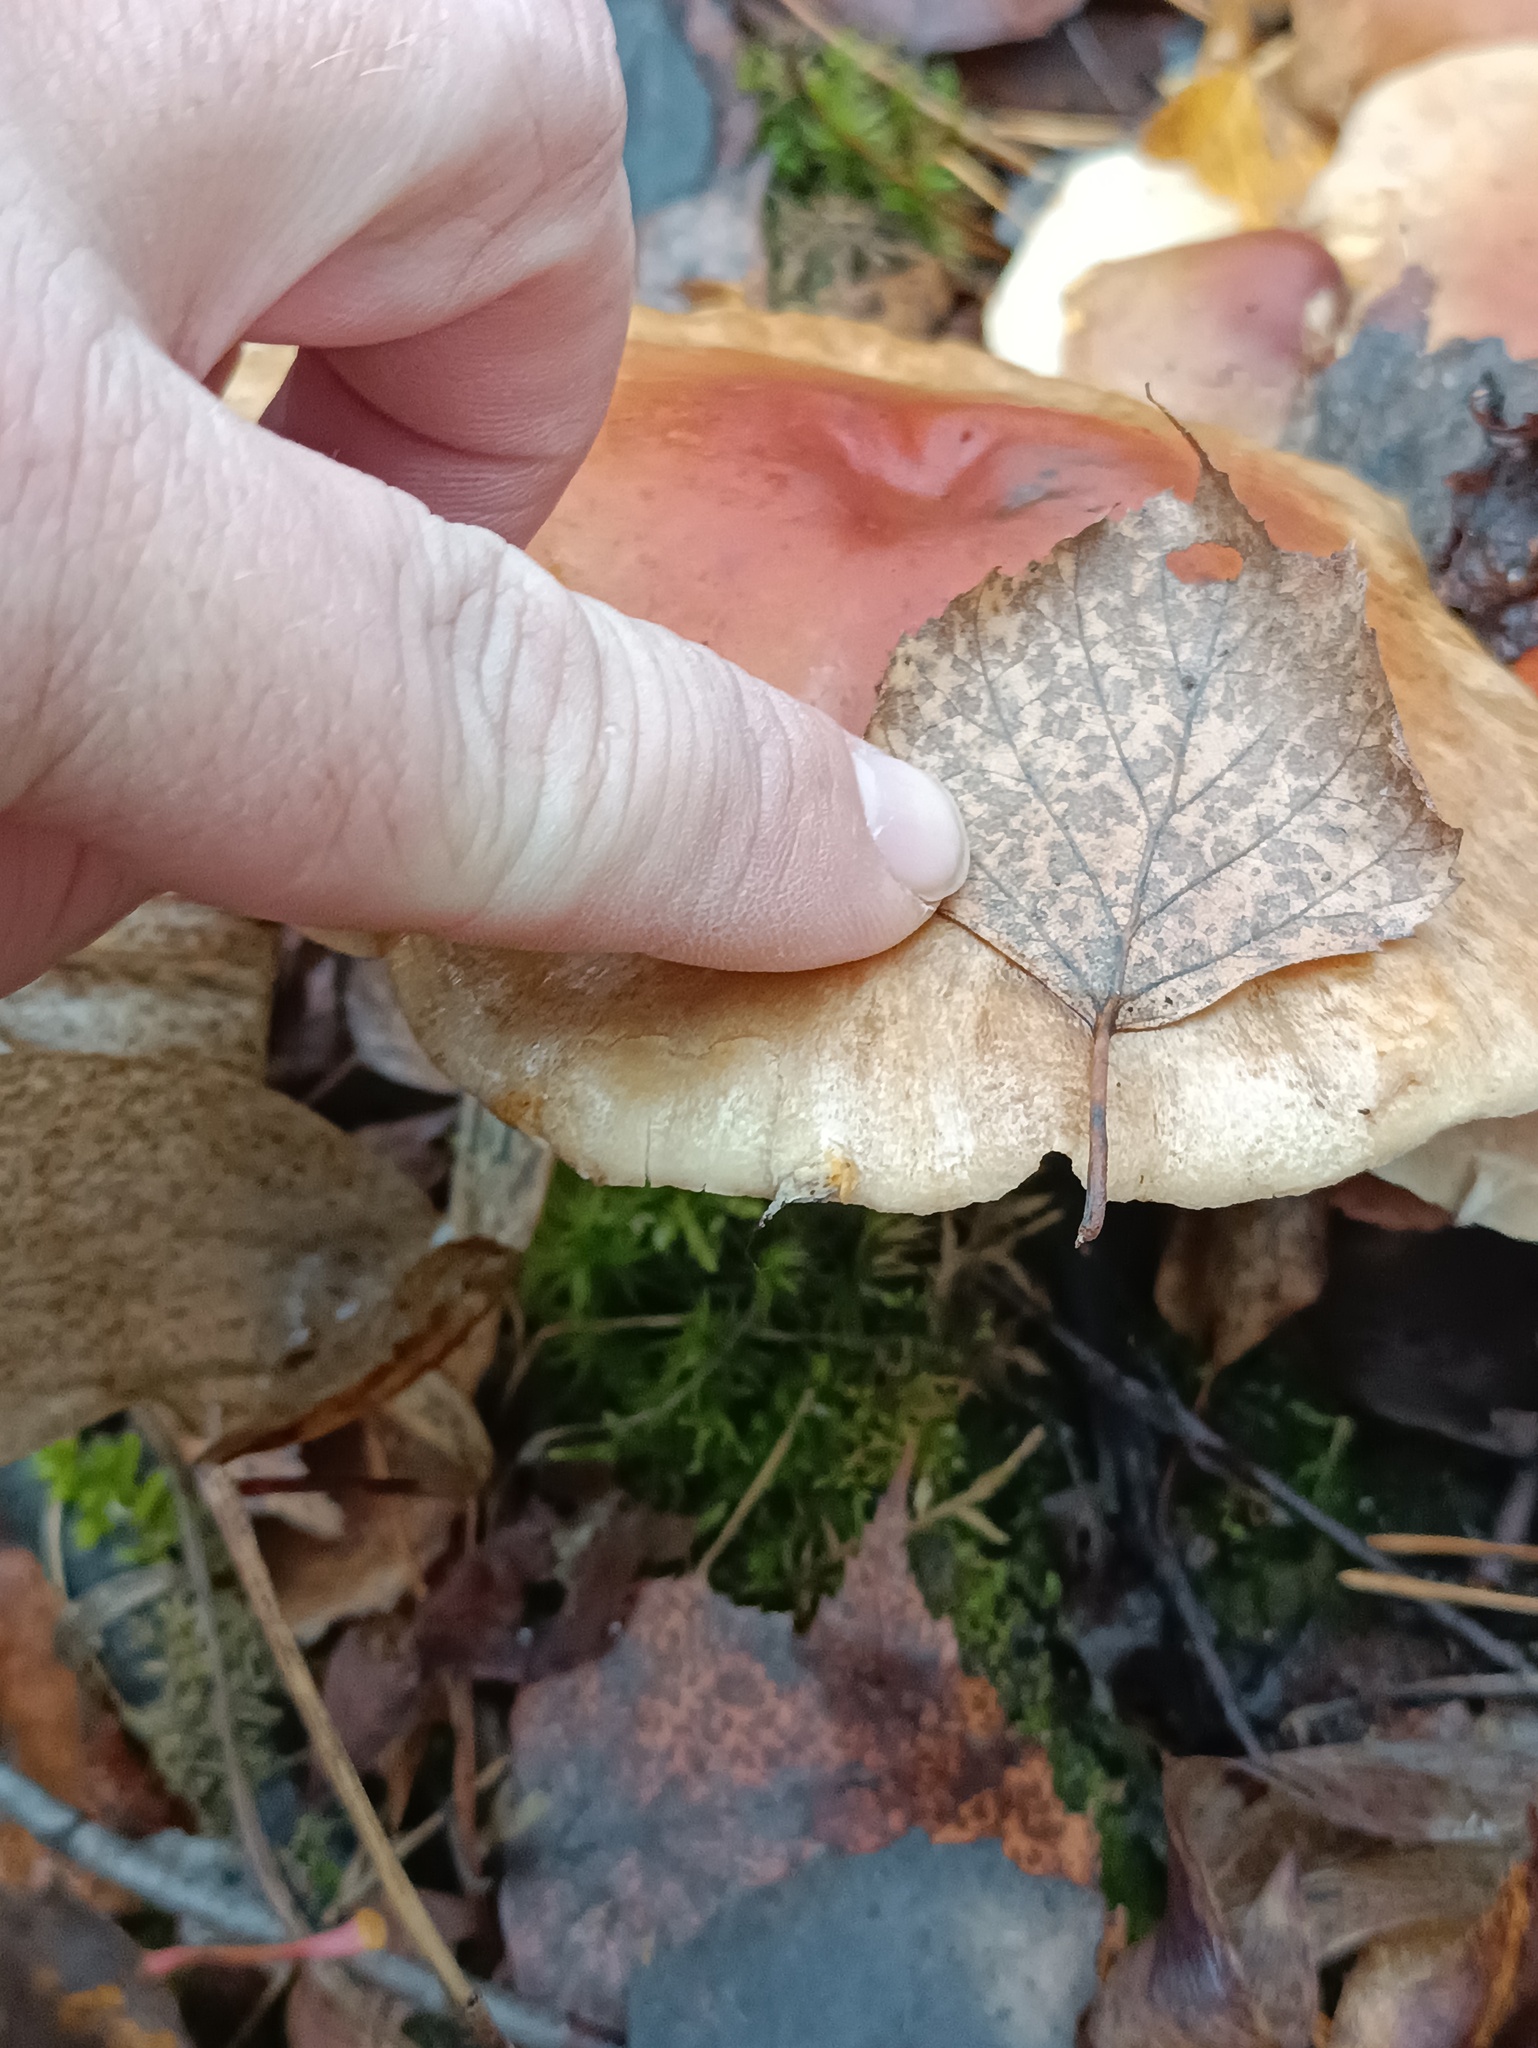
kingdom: Fungi
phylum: Basidiomycota
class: Agaricomycetes
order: Agaricales
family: Strophariaceae
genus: Hypholoma
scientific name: Hypholoma lateritium
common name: Brick caps
